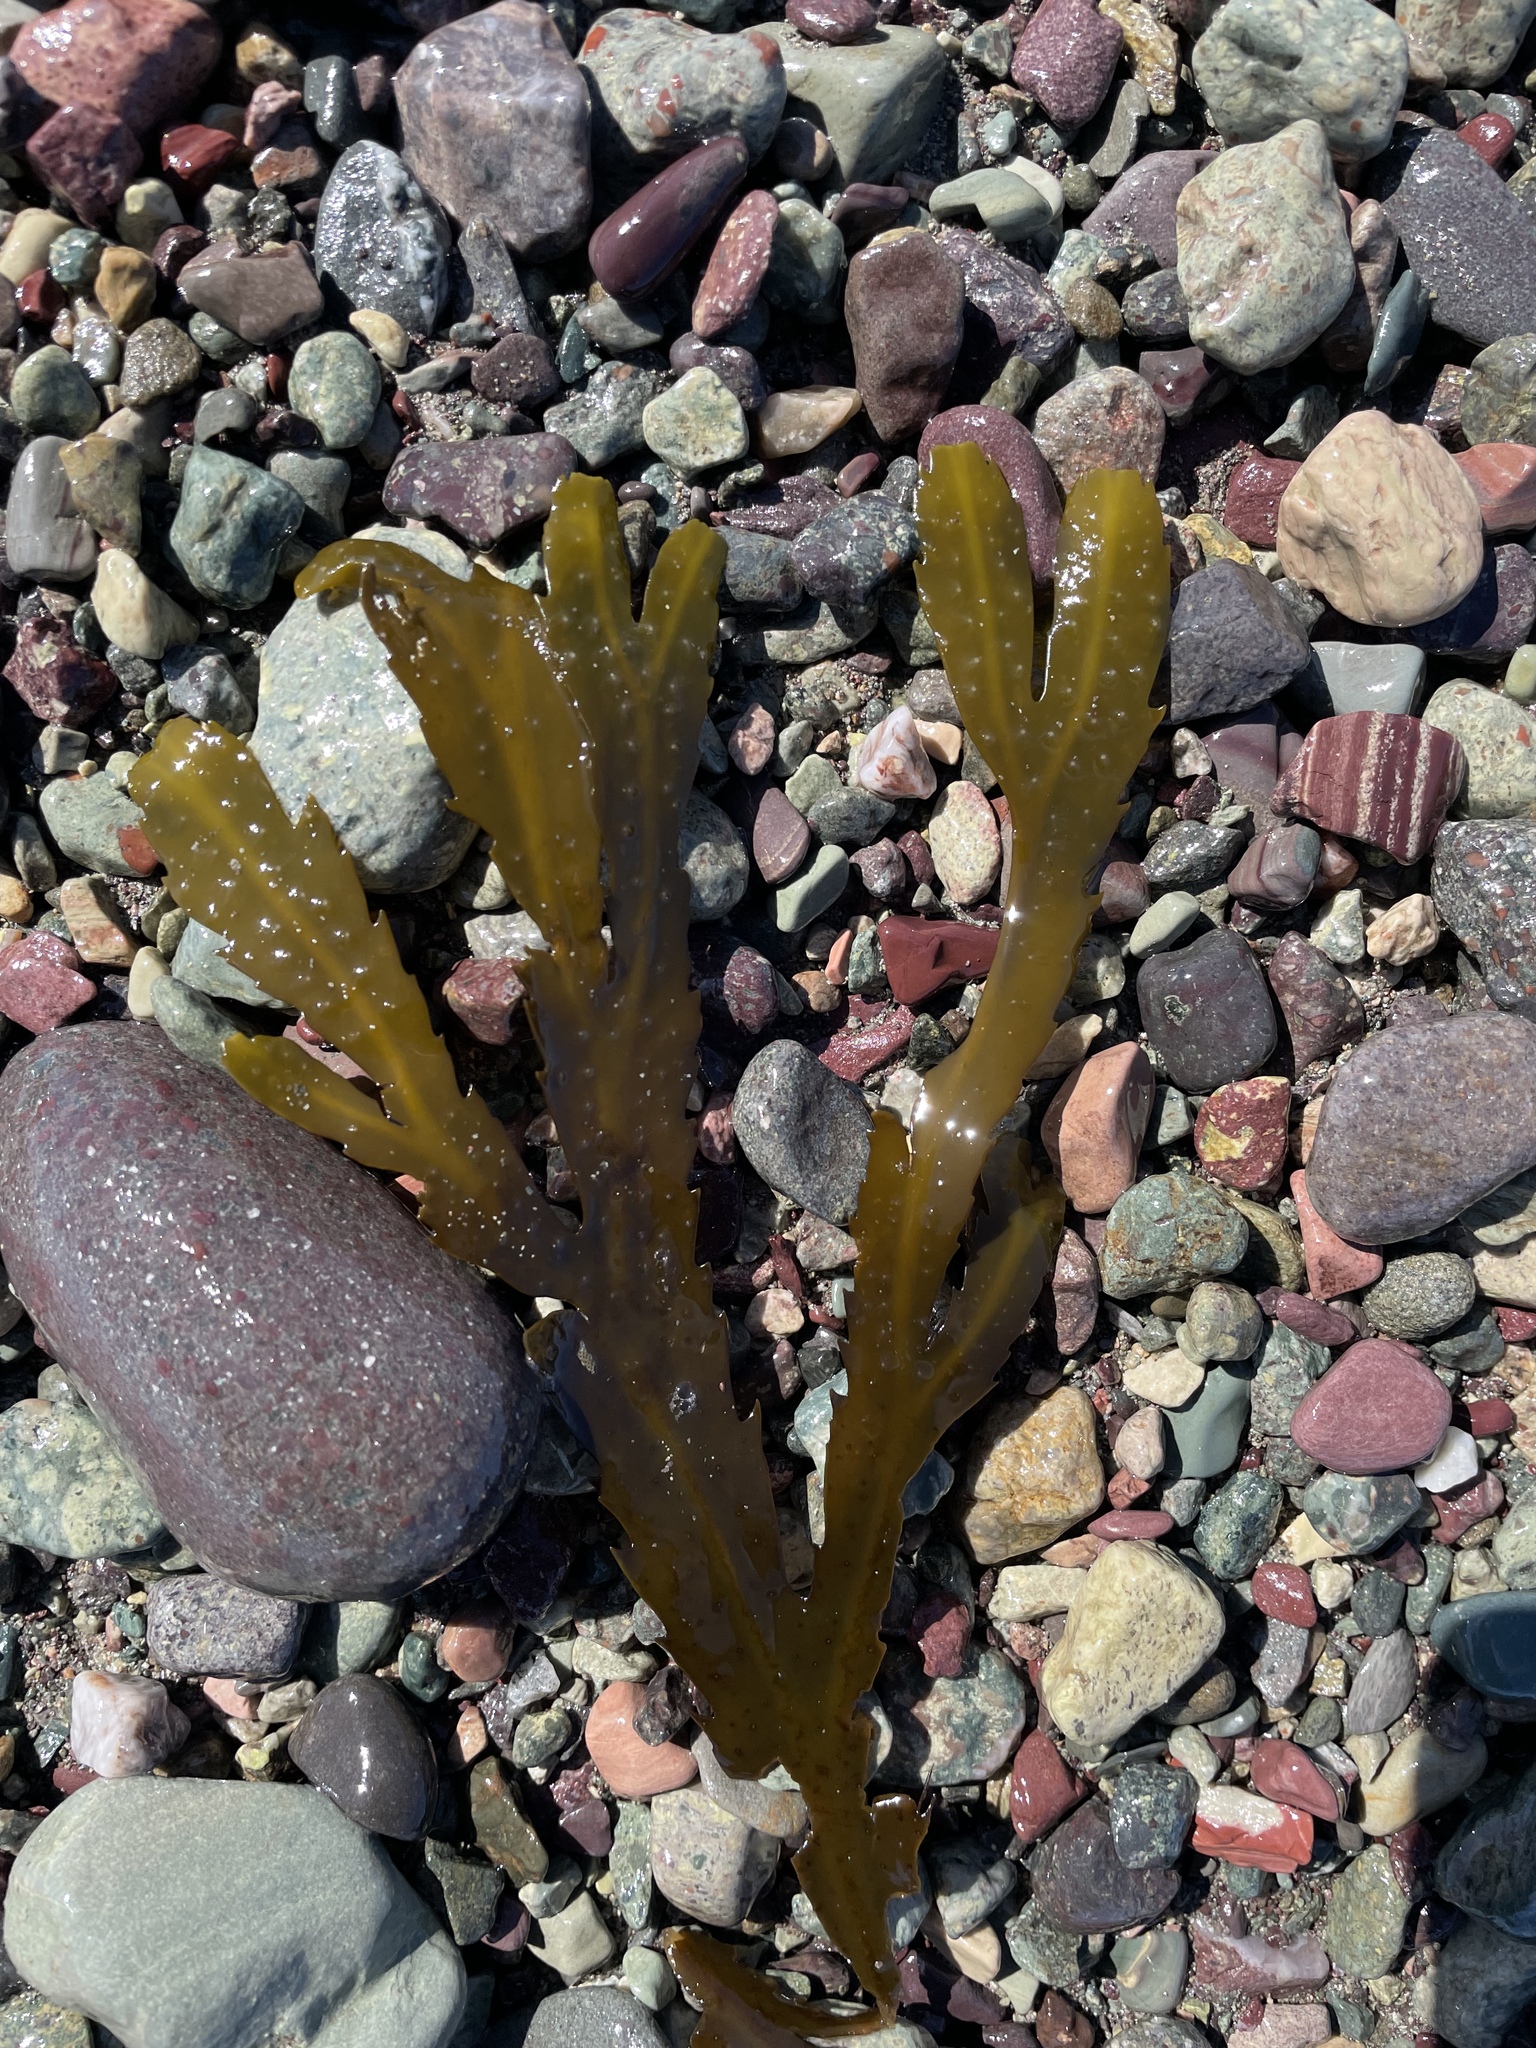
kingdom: Chromista
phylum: Ochrophyta
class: Phaeophyceae
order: Fucales
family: Fucaceae
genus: Fucus
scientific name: Fucus serratus
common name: Toothed wrack
